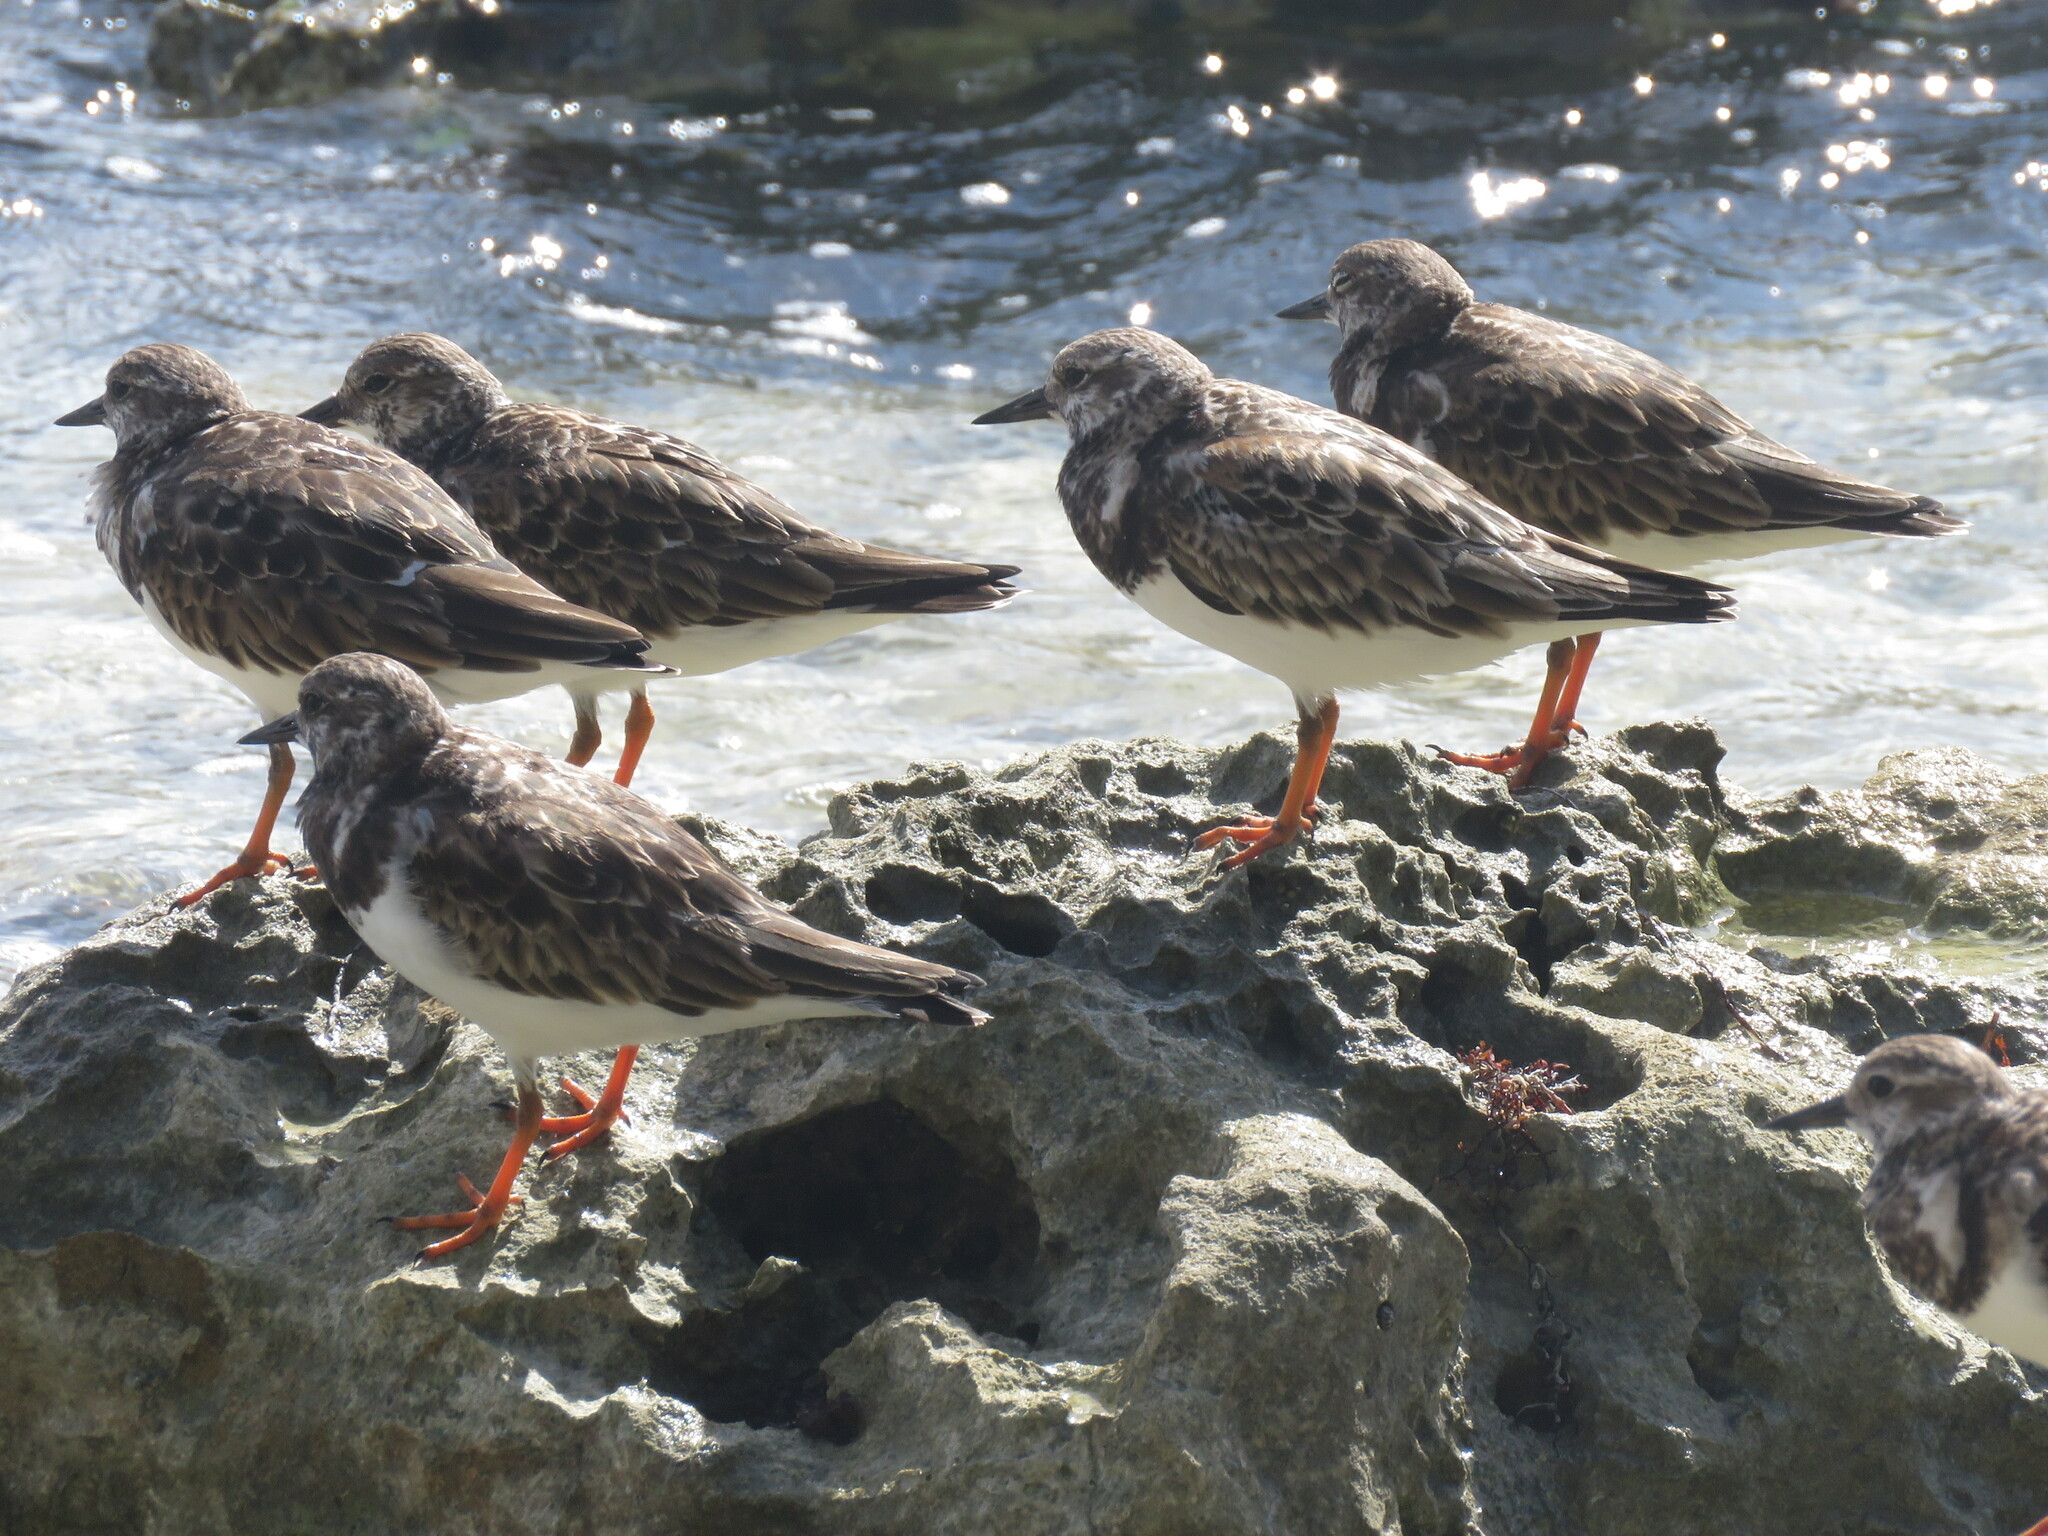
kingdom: Animalia
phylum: Chordata
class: Aves
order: Charadriiformes
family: Scolopacidae
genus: Arenaria
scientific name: Arenaria interpres
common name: Ruddy turnstone
